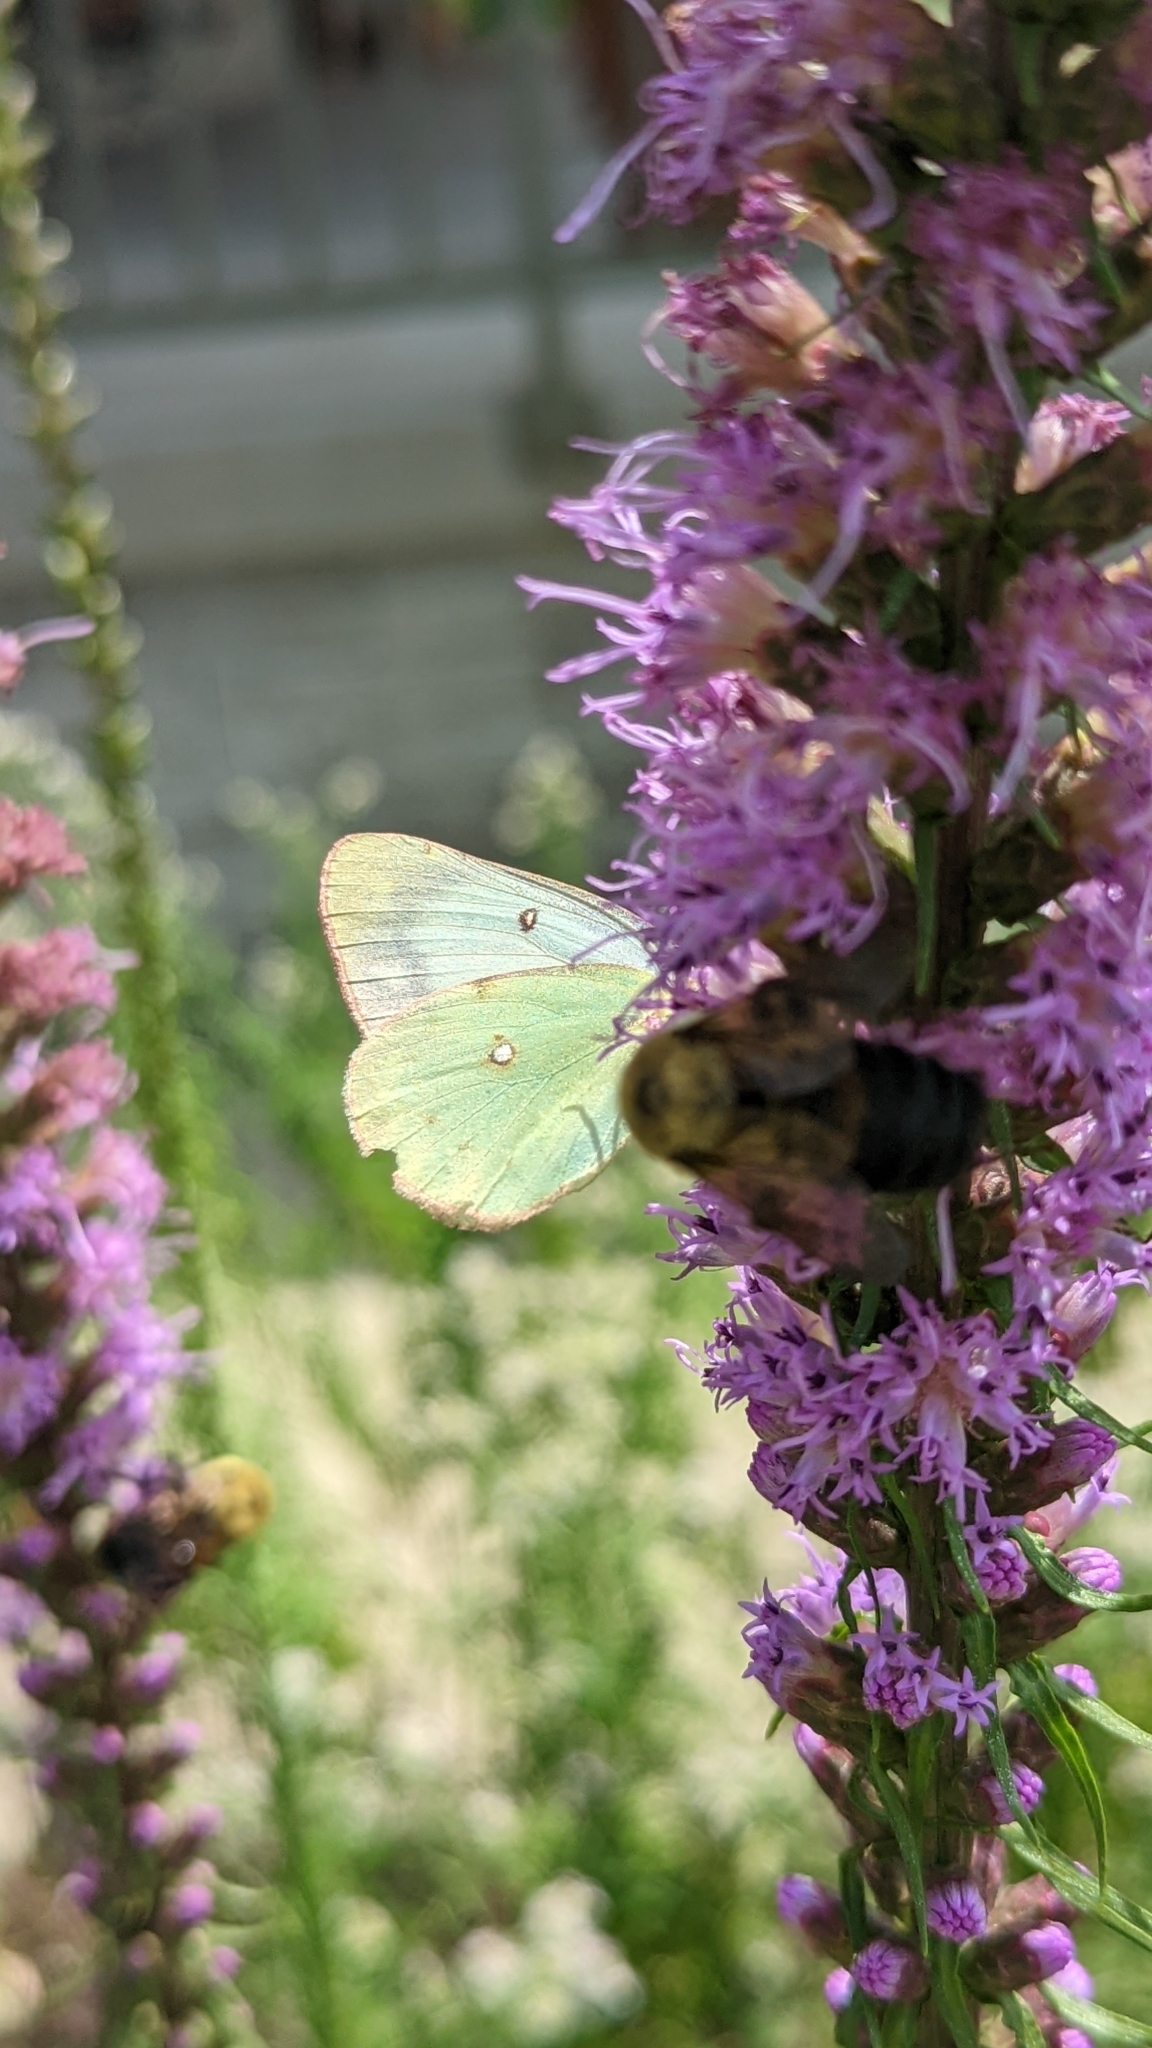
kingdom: Animalia
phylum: Arthropoda
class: Insecta
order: Lepidoptera
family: Pieridae
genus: Colias
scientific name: Colias philodice
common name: Clouded sulphur
